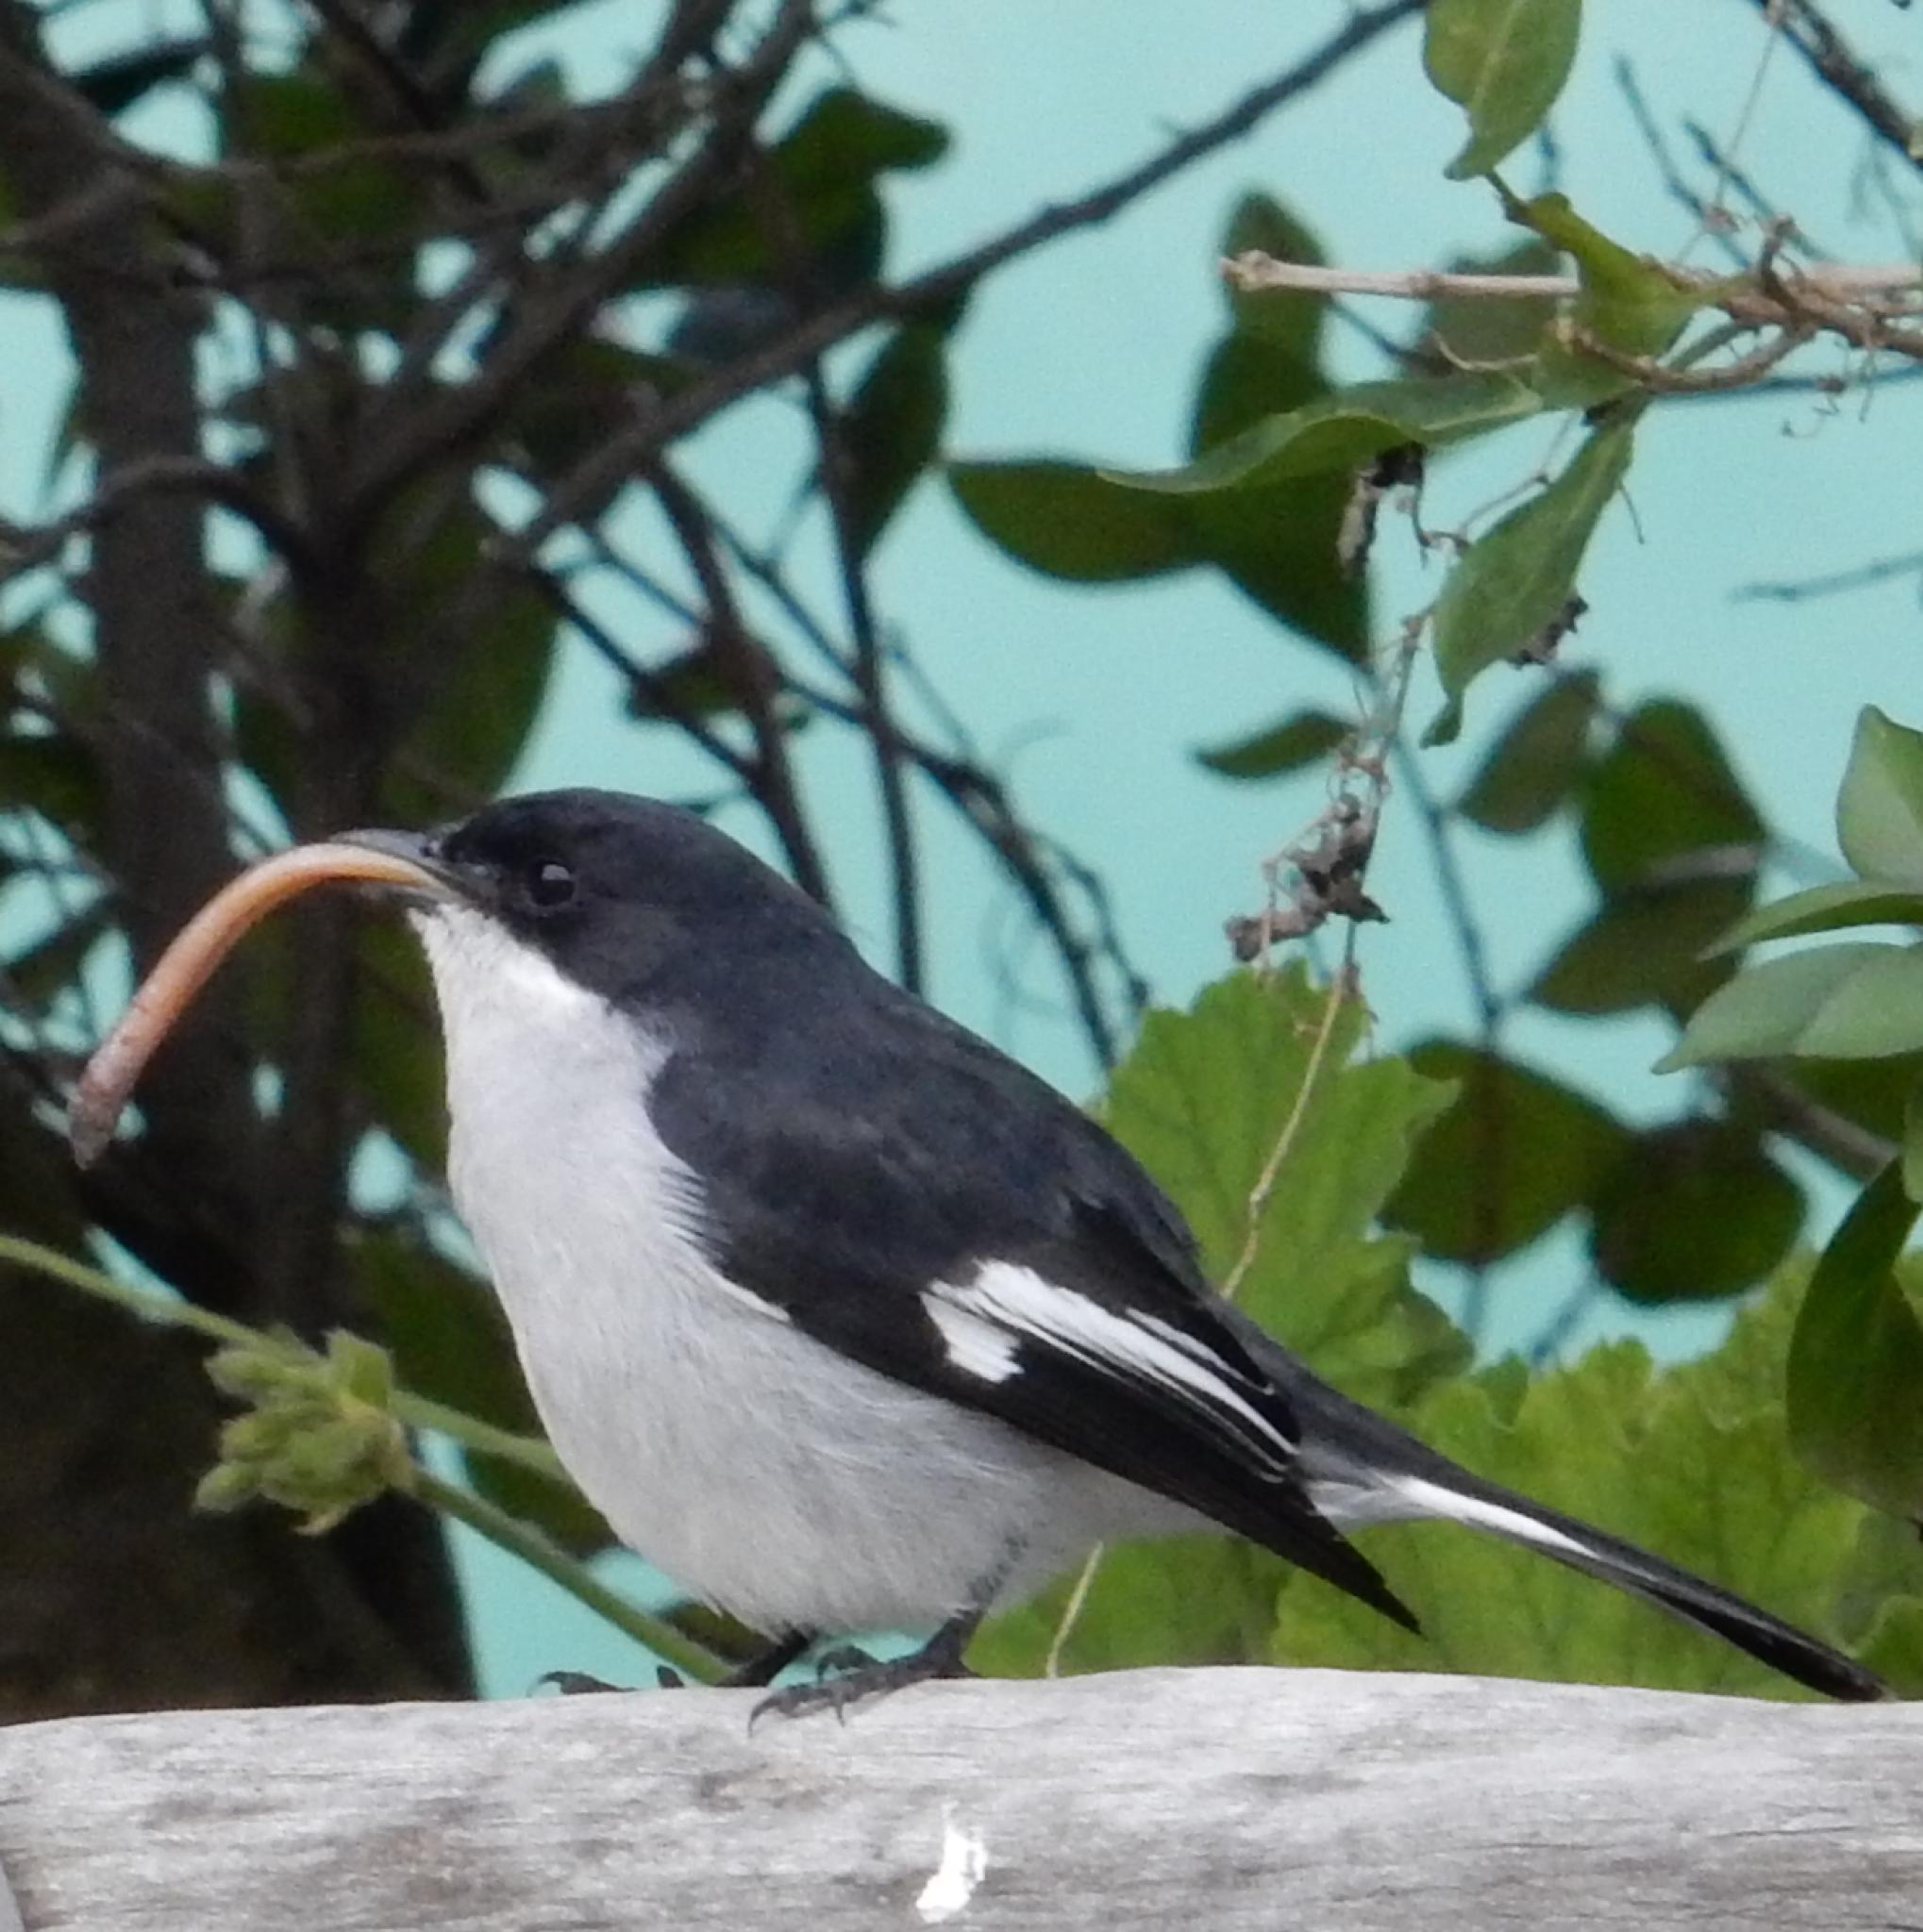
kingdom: Animalia
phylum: Chordata
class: Aves
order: Passeriformes
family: Muscicapidae
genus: Sigelus
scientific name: Sigelus silens
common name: Fiscal flycatcher
